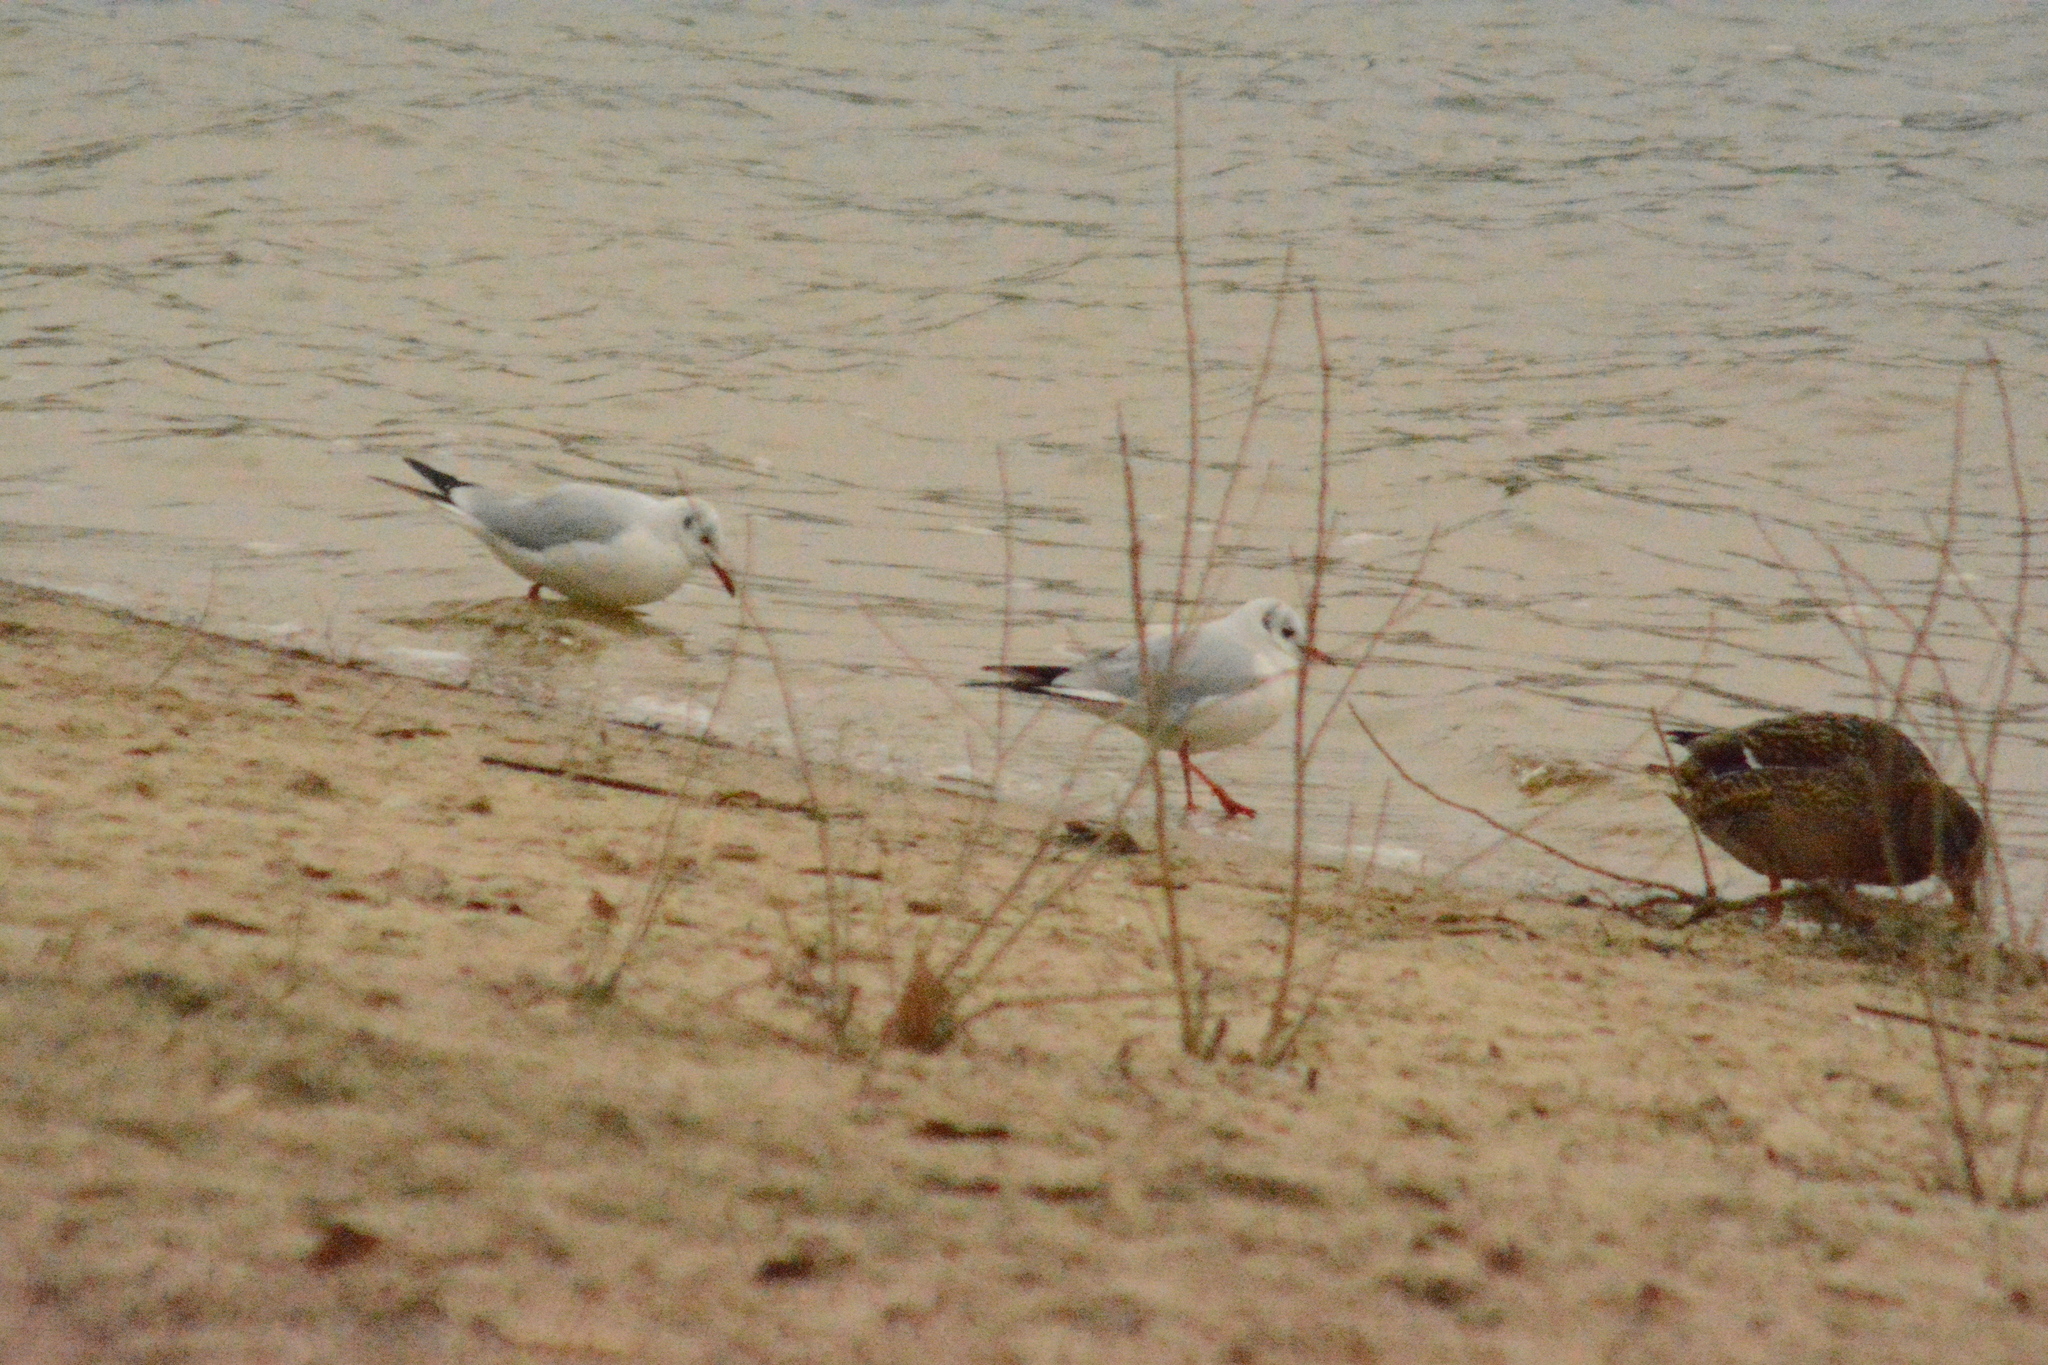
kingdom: Animalia
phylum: Chordata
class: Aves
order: Charadriiformes
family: Laridae
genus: Chroicocephalus
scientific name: Chroicocephalus ridibundus
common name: Black-headed gull
